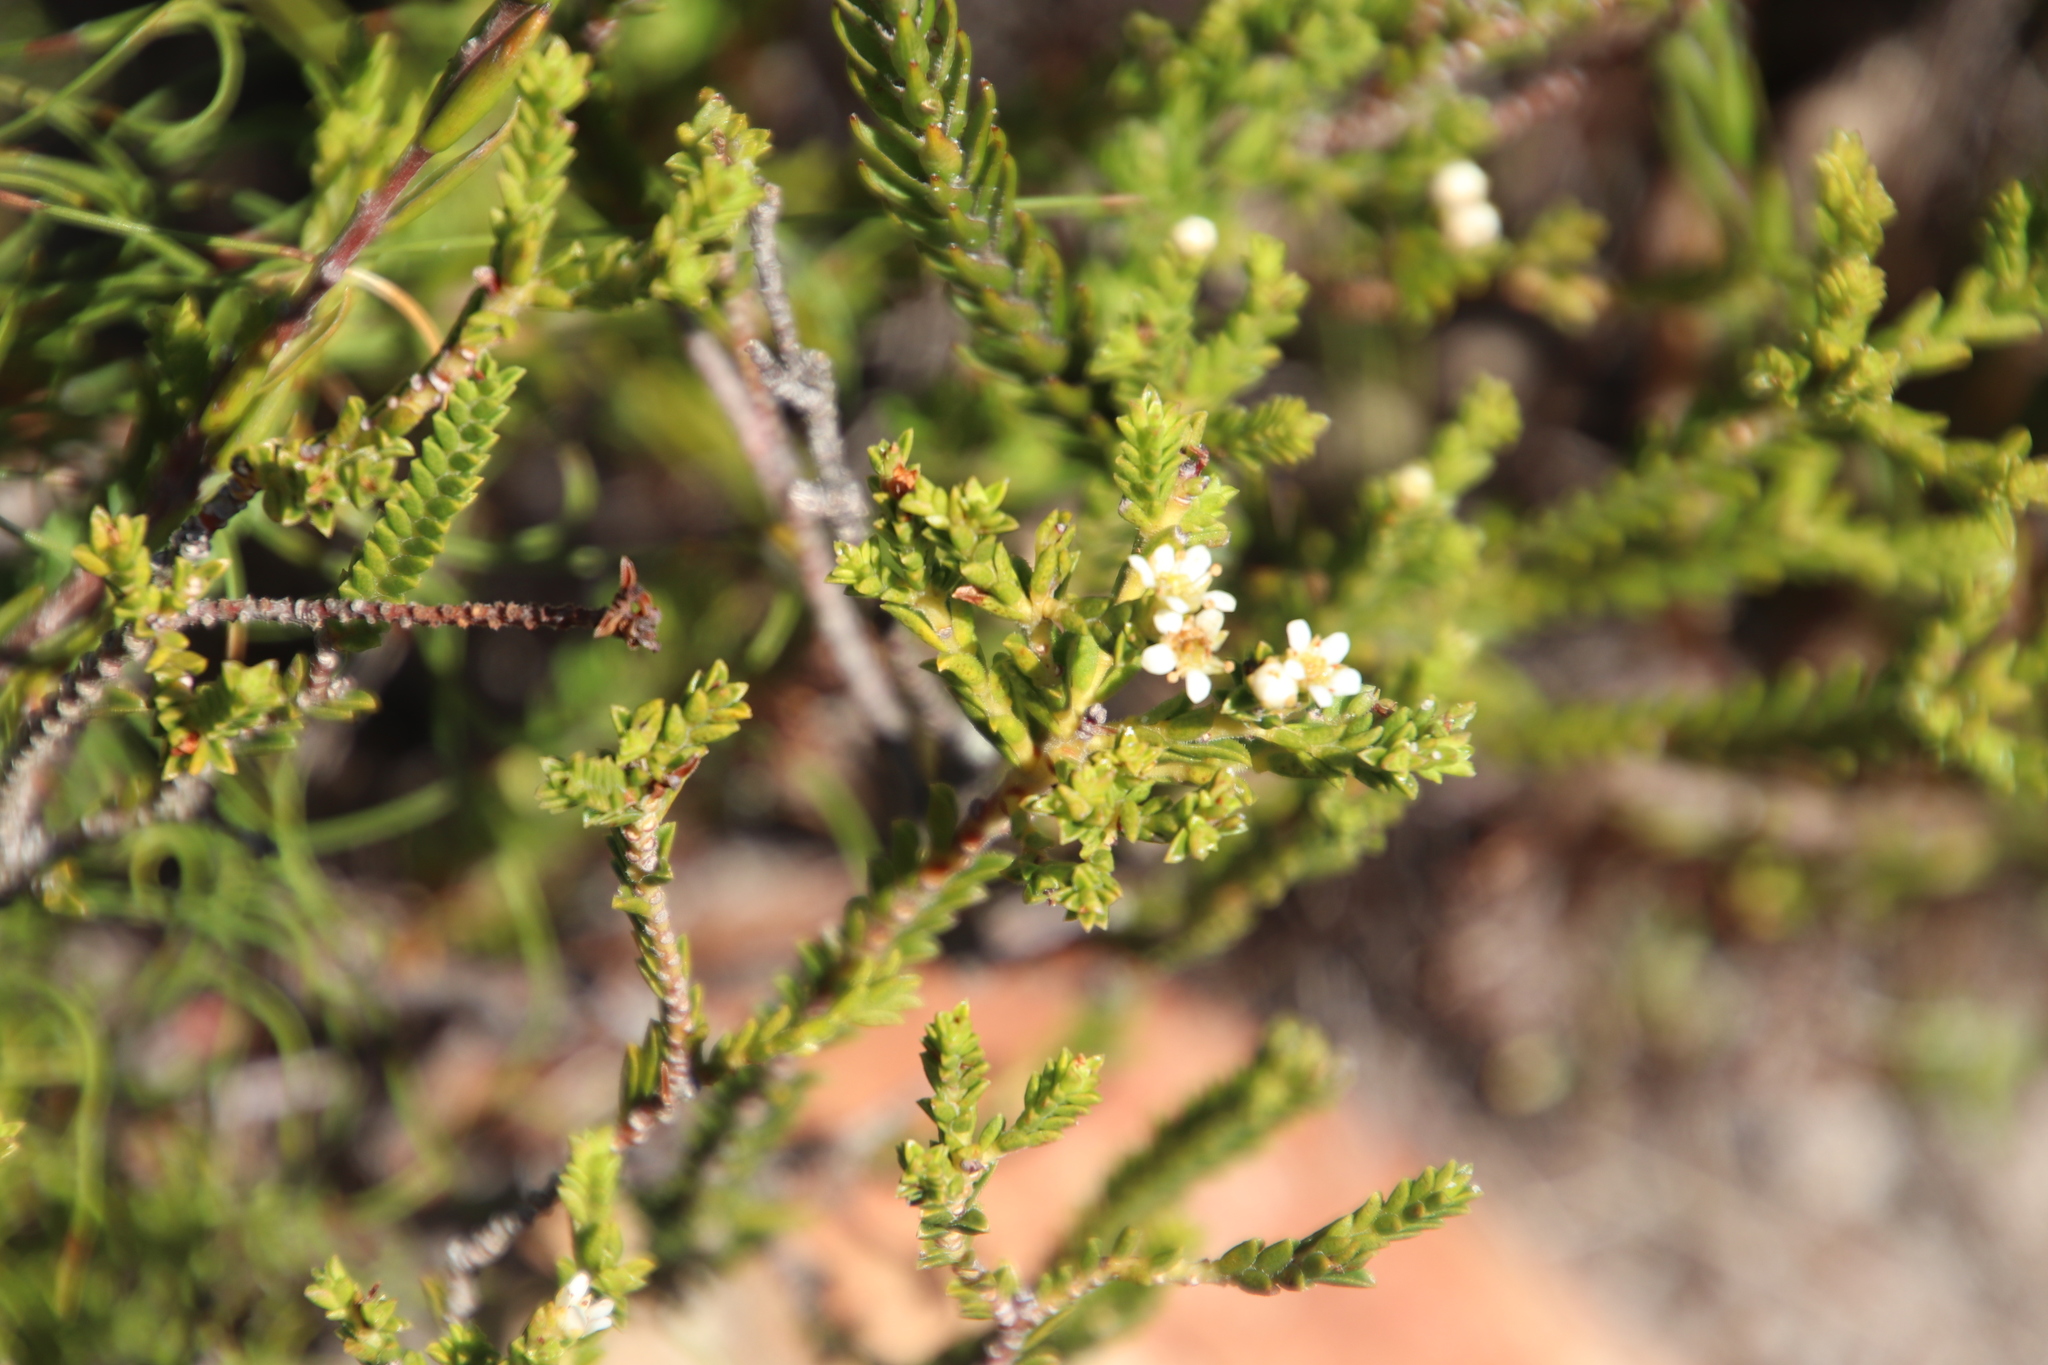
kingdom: Plantae
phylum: Tracheophyta
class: Magnoliopsida
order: Sapindales
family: Rutaceae
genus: Diosma
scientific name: Diosma oppositifolia
